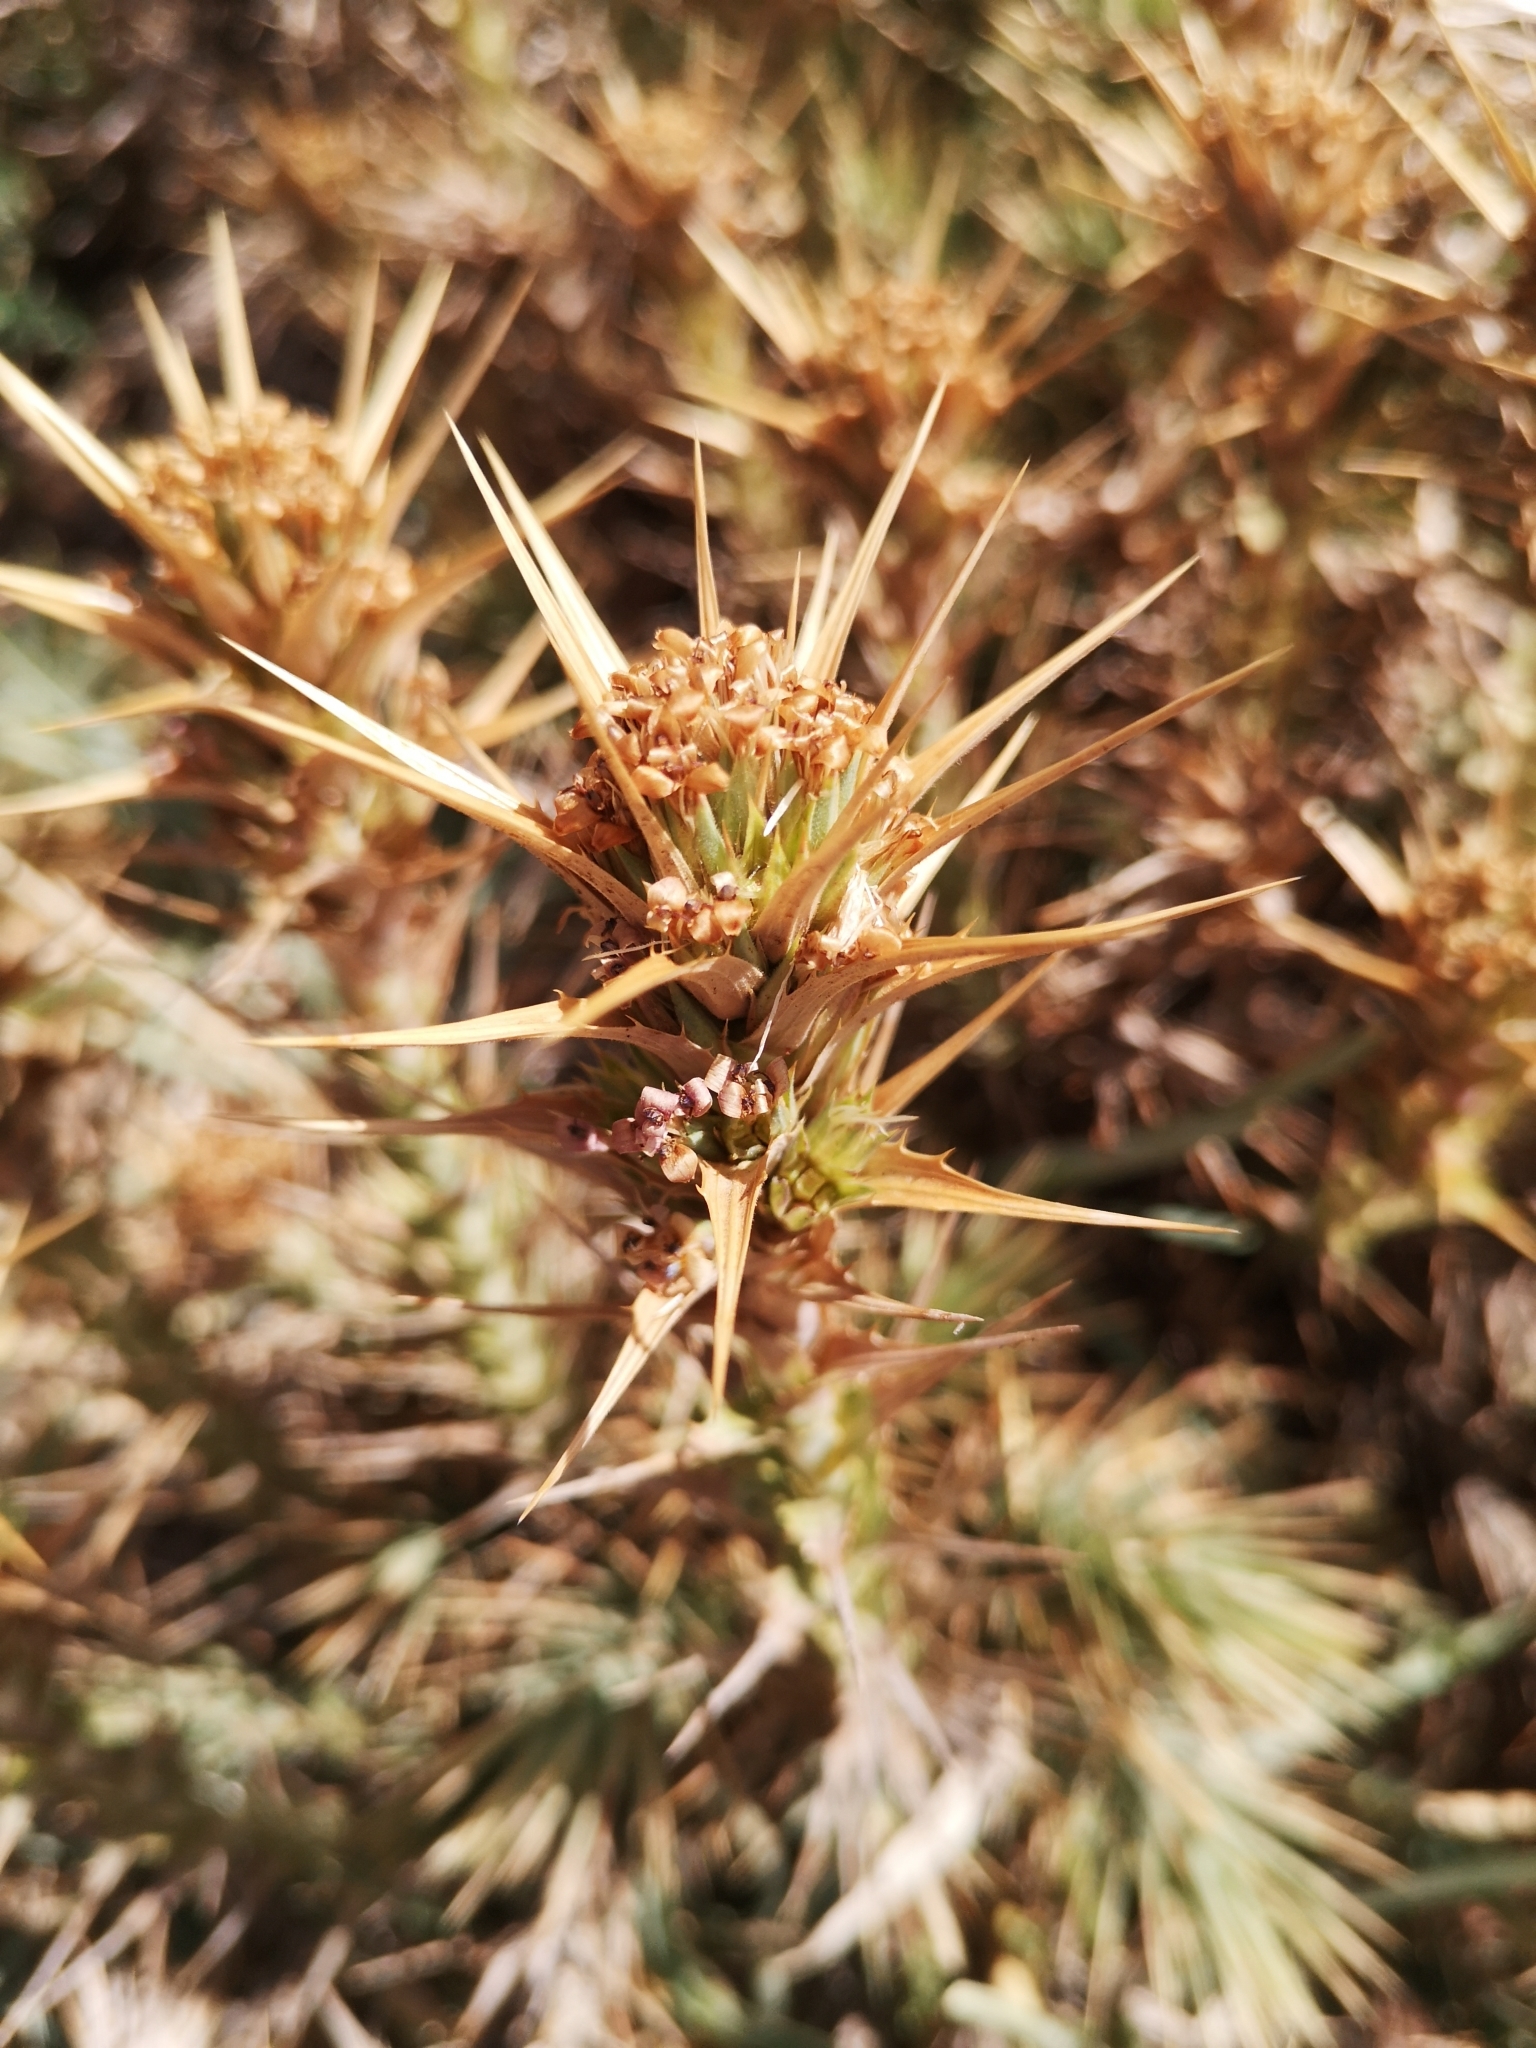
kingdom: Plantae
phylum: Tracheophyta
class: Magnoliopsida
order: Asterales
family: Asteraceae
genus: Nassauvia
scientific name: Nassauvia cumingii
